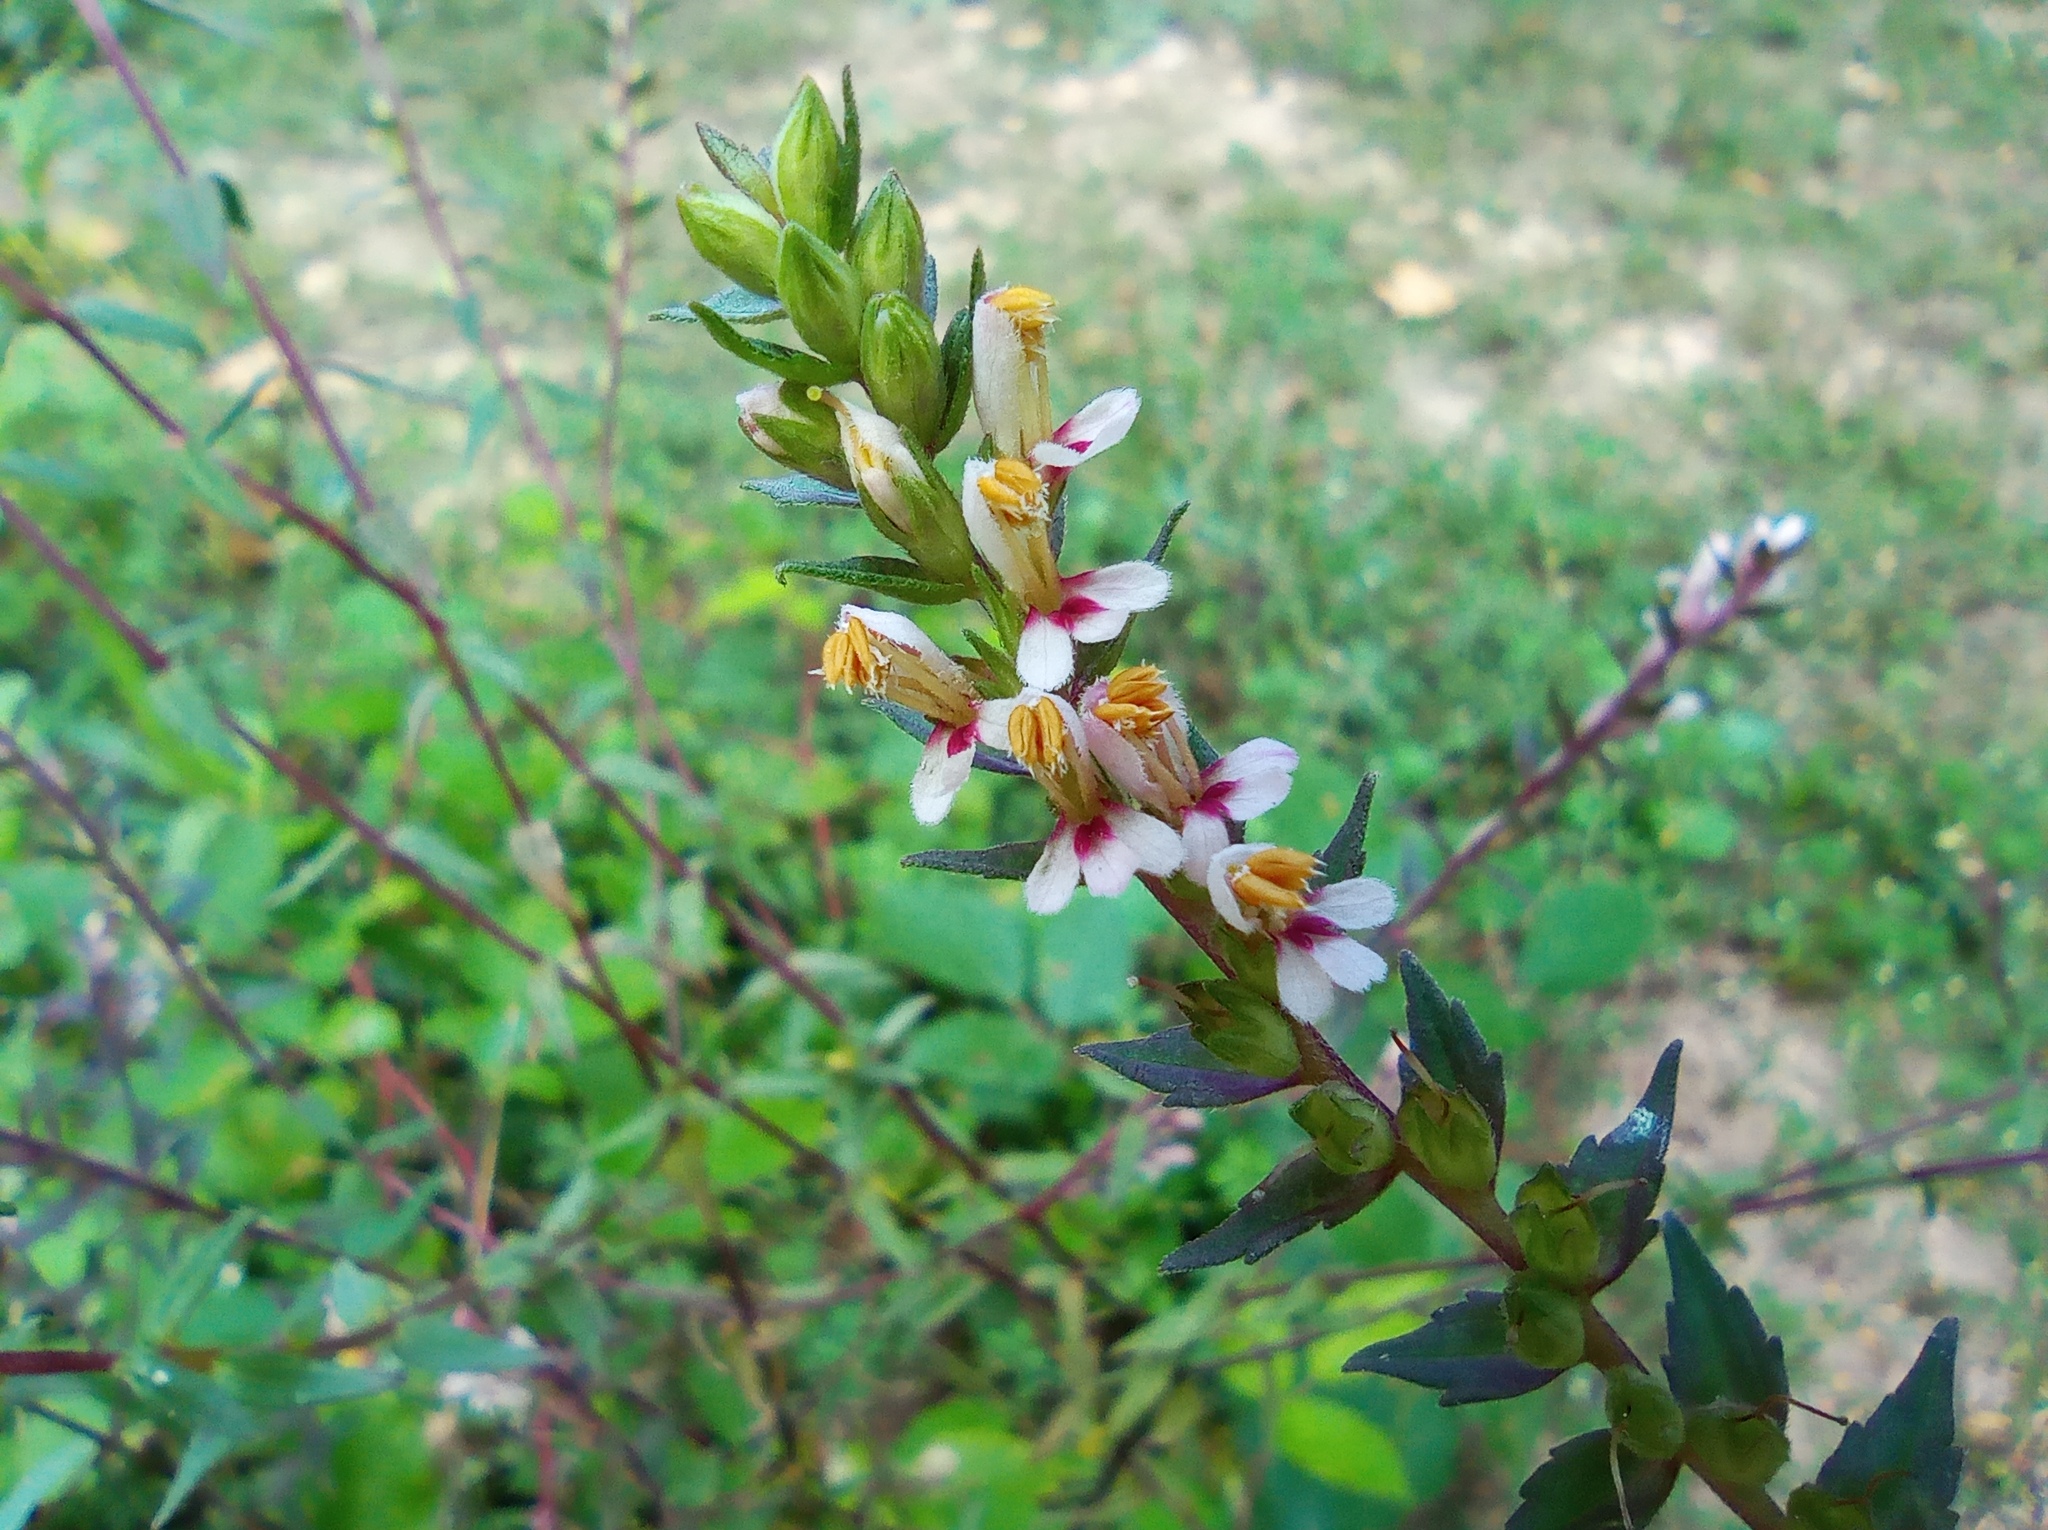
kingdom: Plantae
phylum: Tracheophyta
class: Magnoliopsida
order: Lamiales
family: Orobanchaceae
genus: Odontites
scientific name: Odontites vernus
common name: Red bartsia
